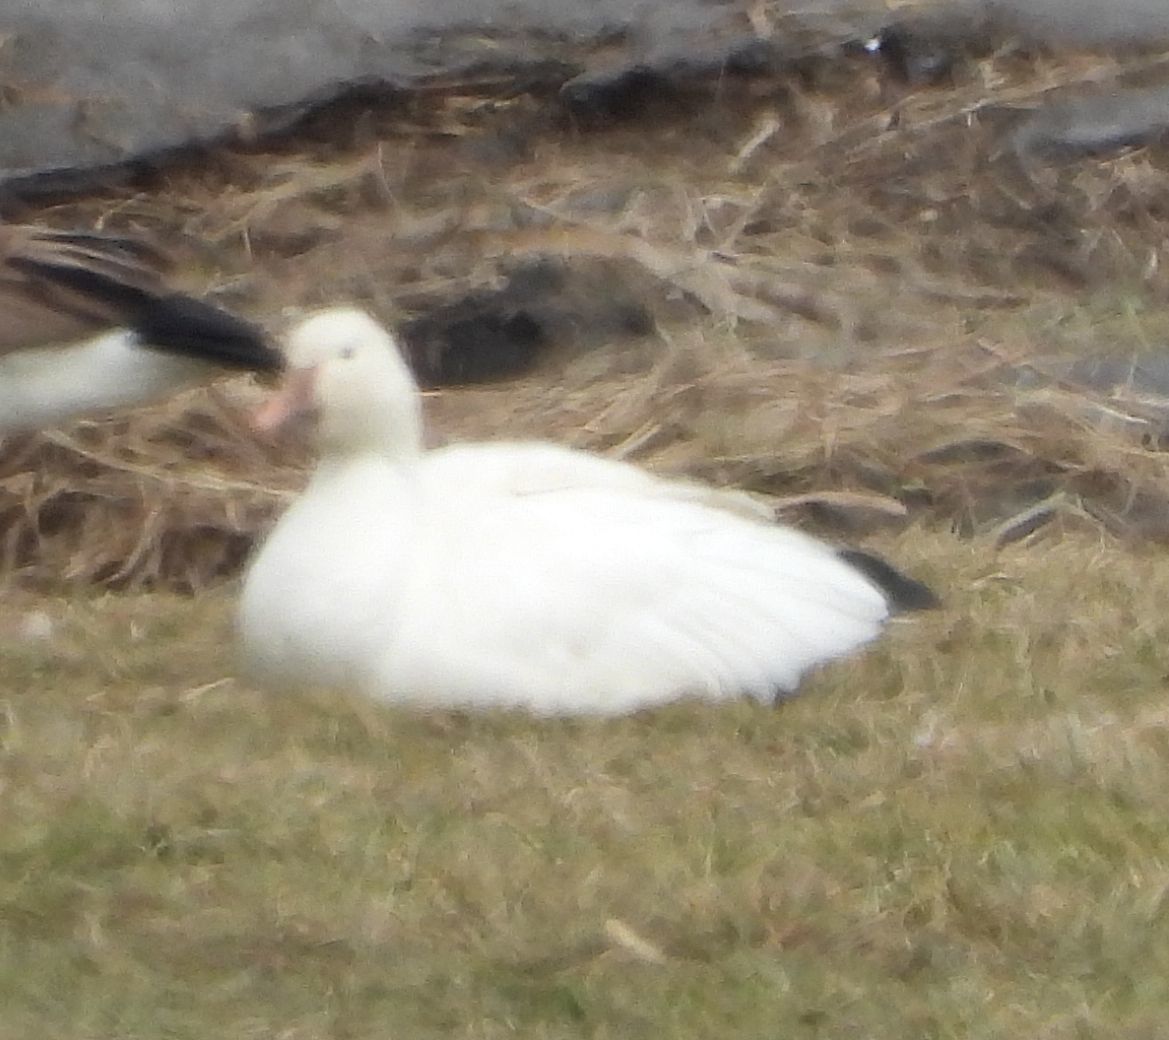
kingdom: Animalia
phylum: Chordata
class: Aves
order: Anseriformes
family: Anatidae
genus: Anser
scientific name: Anser caerulescens
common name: Snow goose
